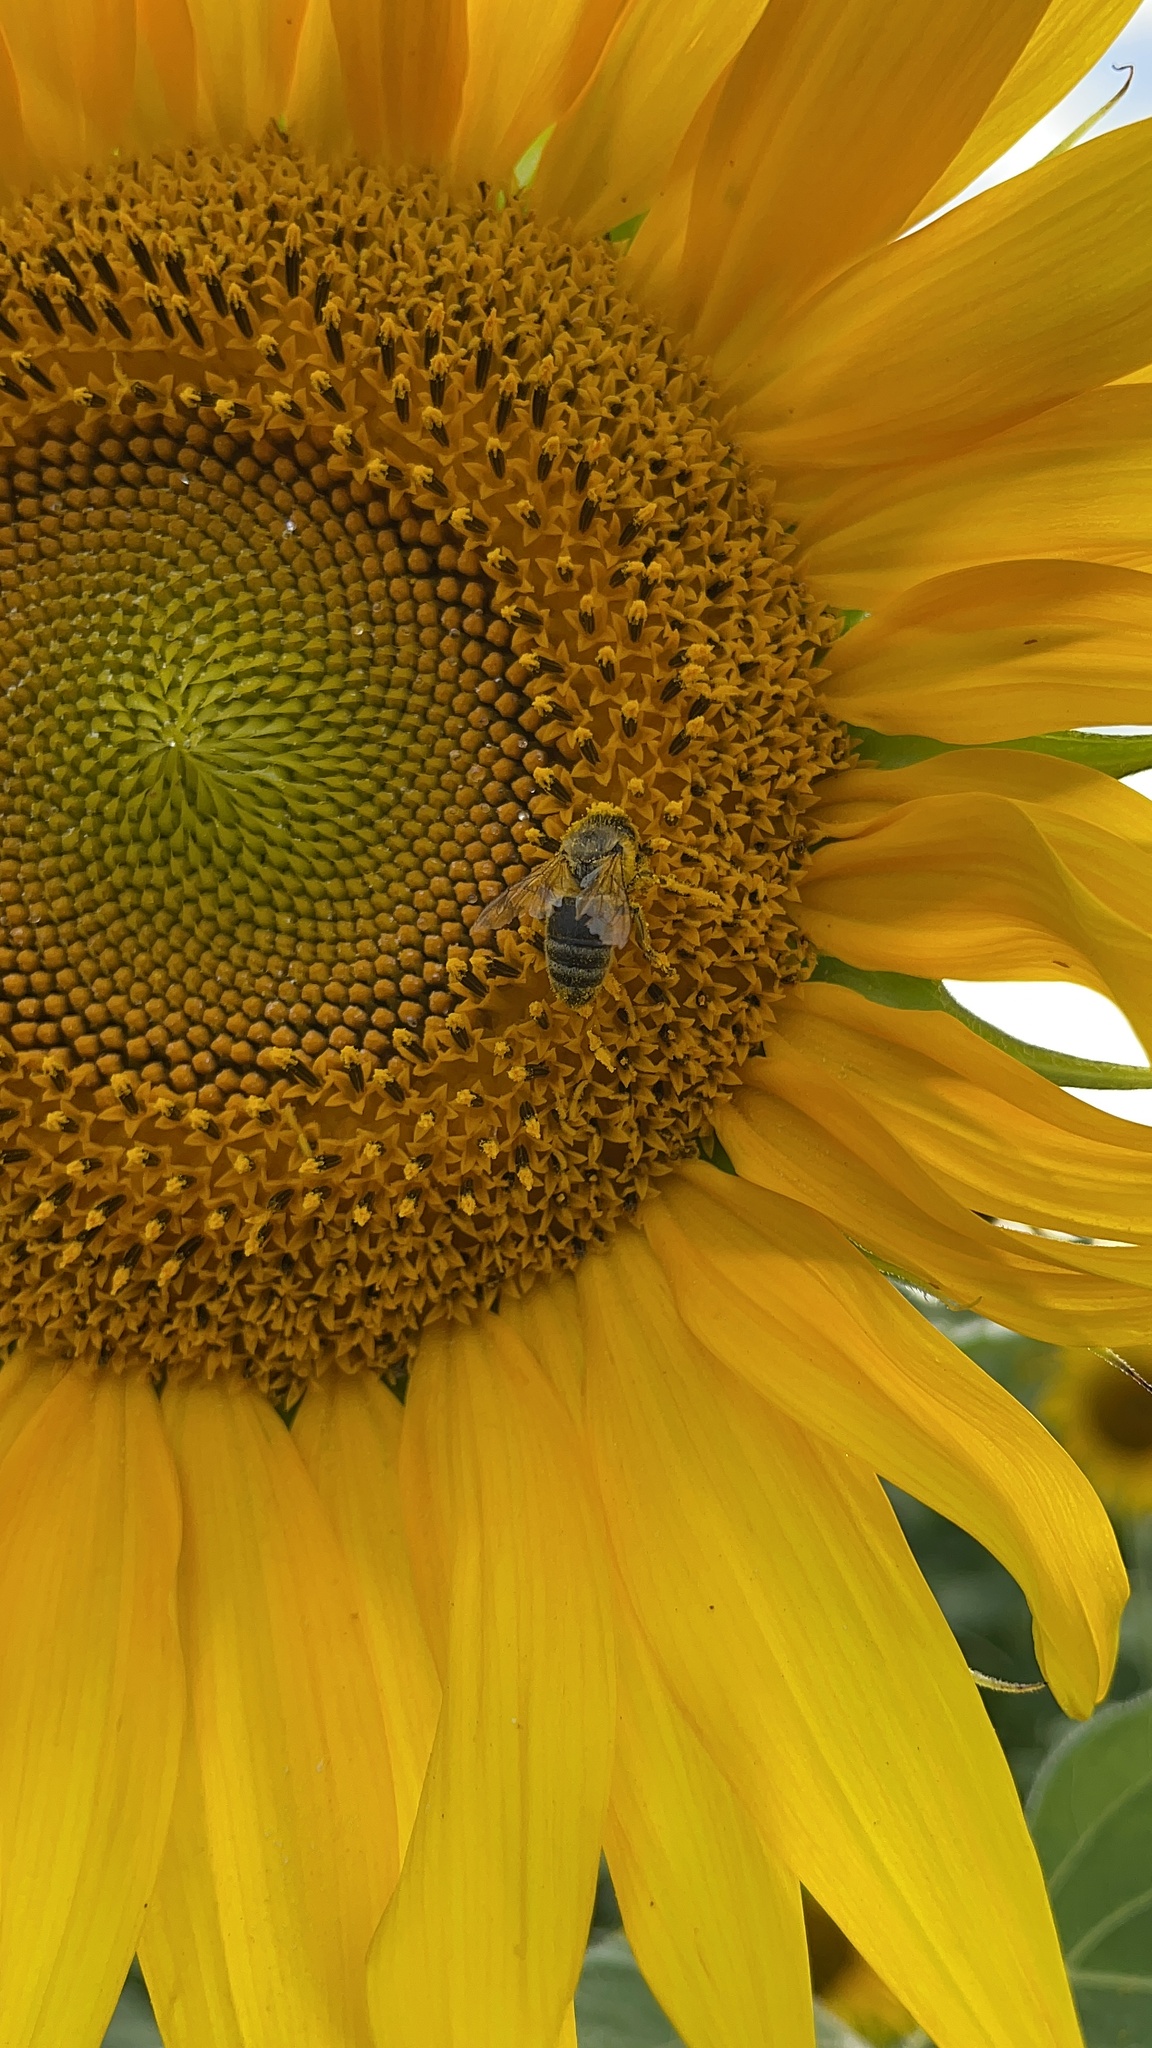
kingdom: Animalia
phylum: Arthropoda
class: Insecta
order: Hymenoptera
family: Apidae
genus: Apis
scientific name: Apis mellifera
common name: Honey bee
